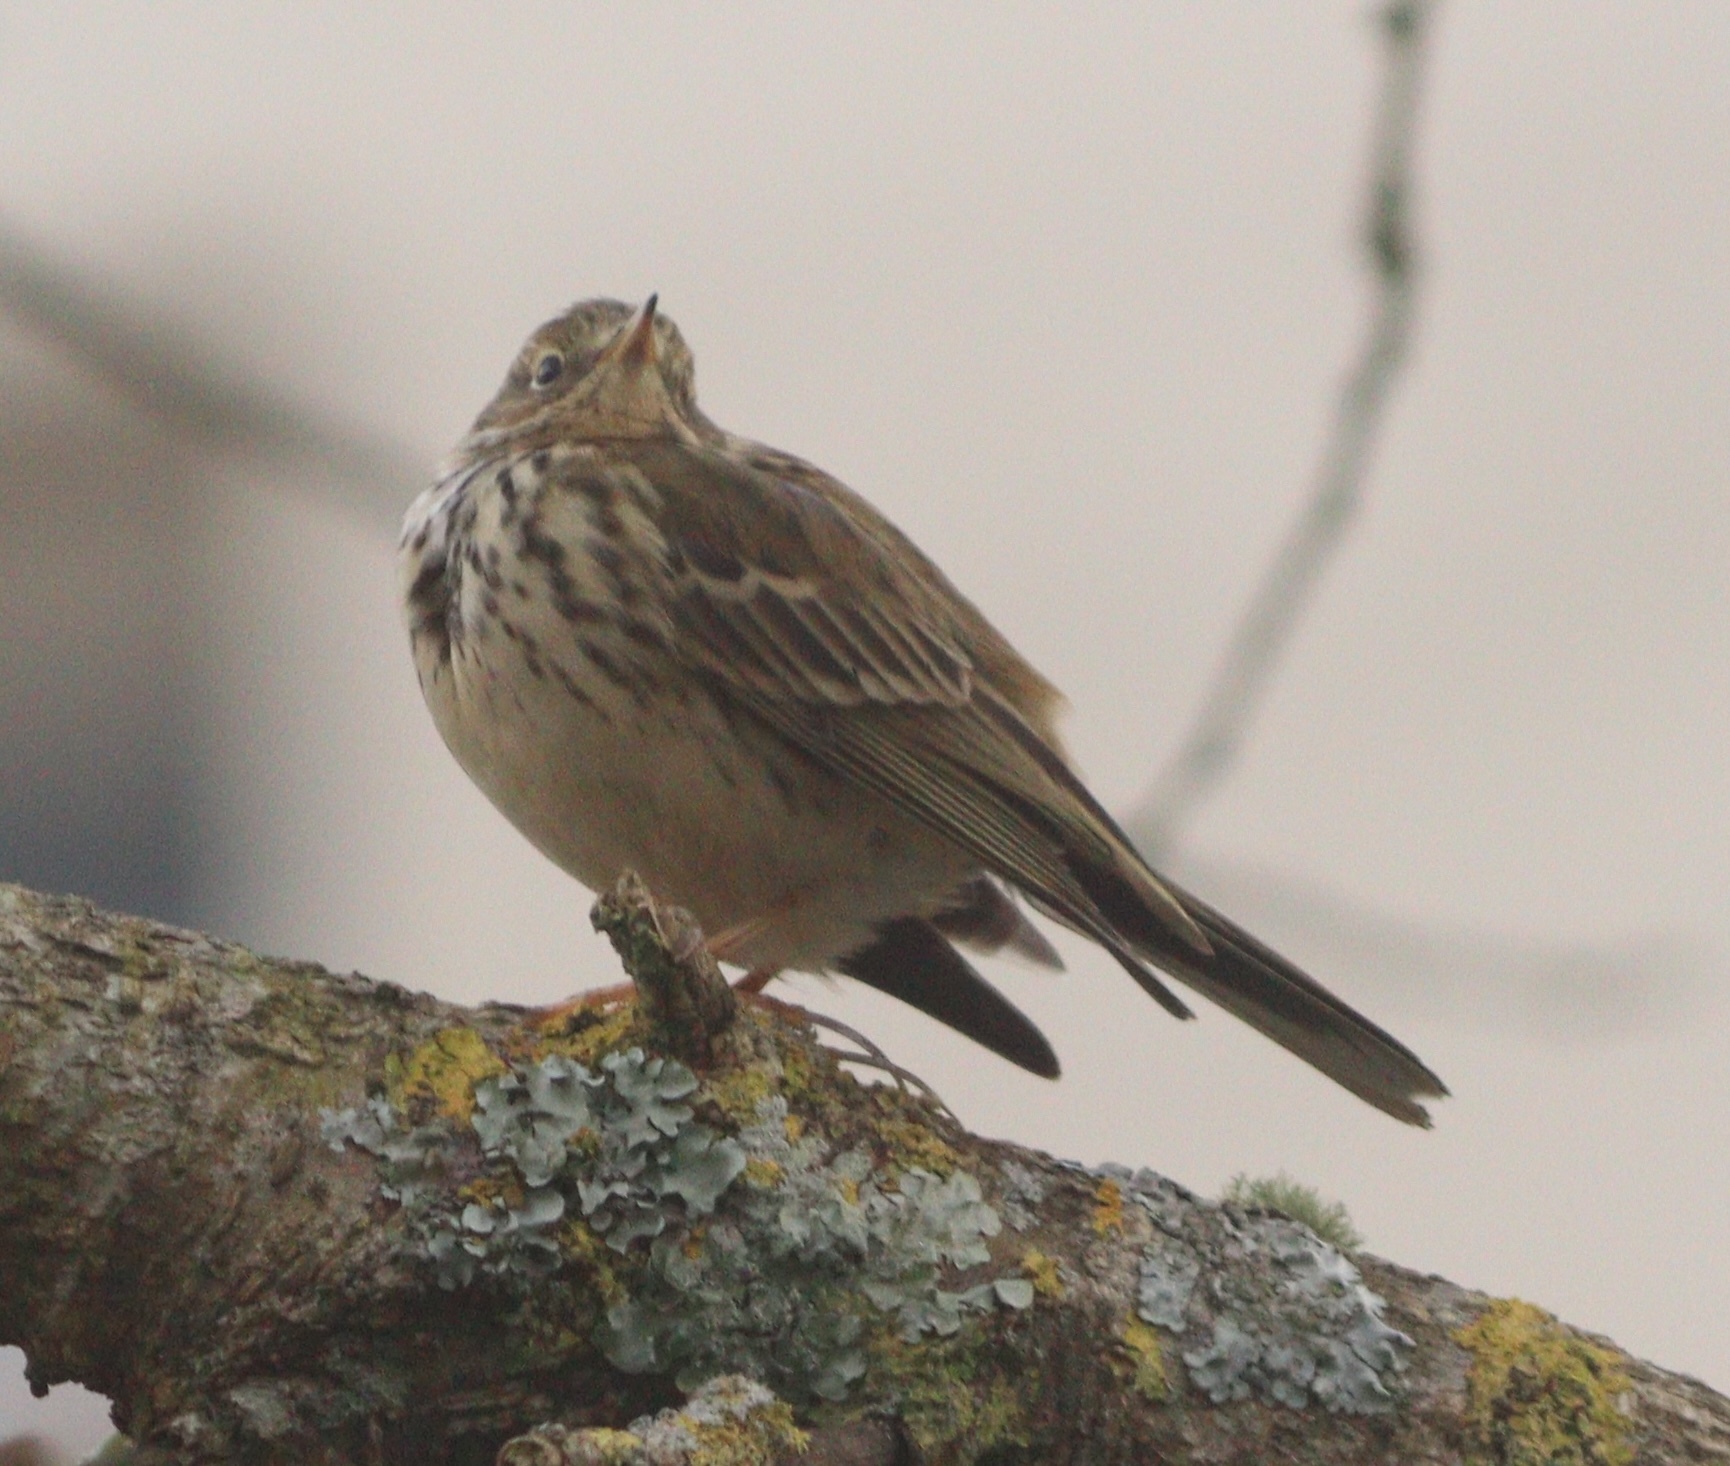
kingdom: Animalia
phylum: Chordata
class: Aves
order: Passeriformes
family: Motacillidae
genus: Anthus
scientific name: Anthus pratensis
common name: Meadow pipit
